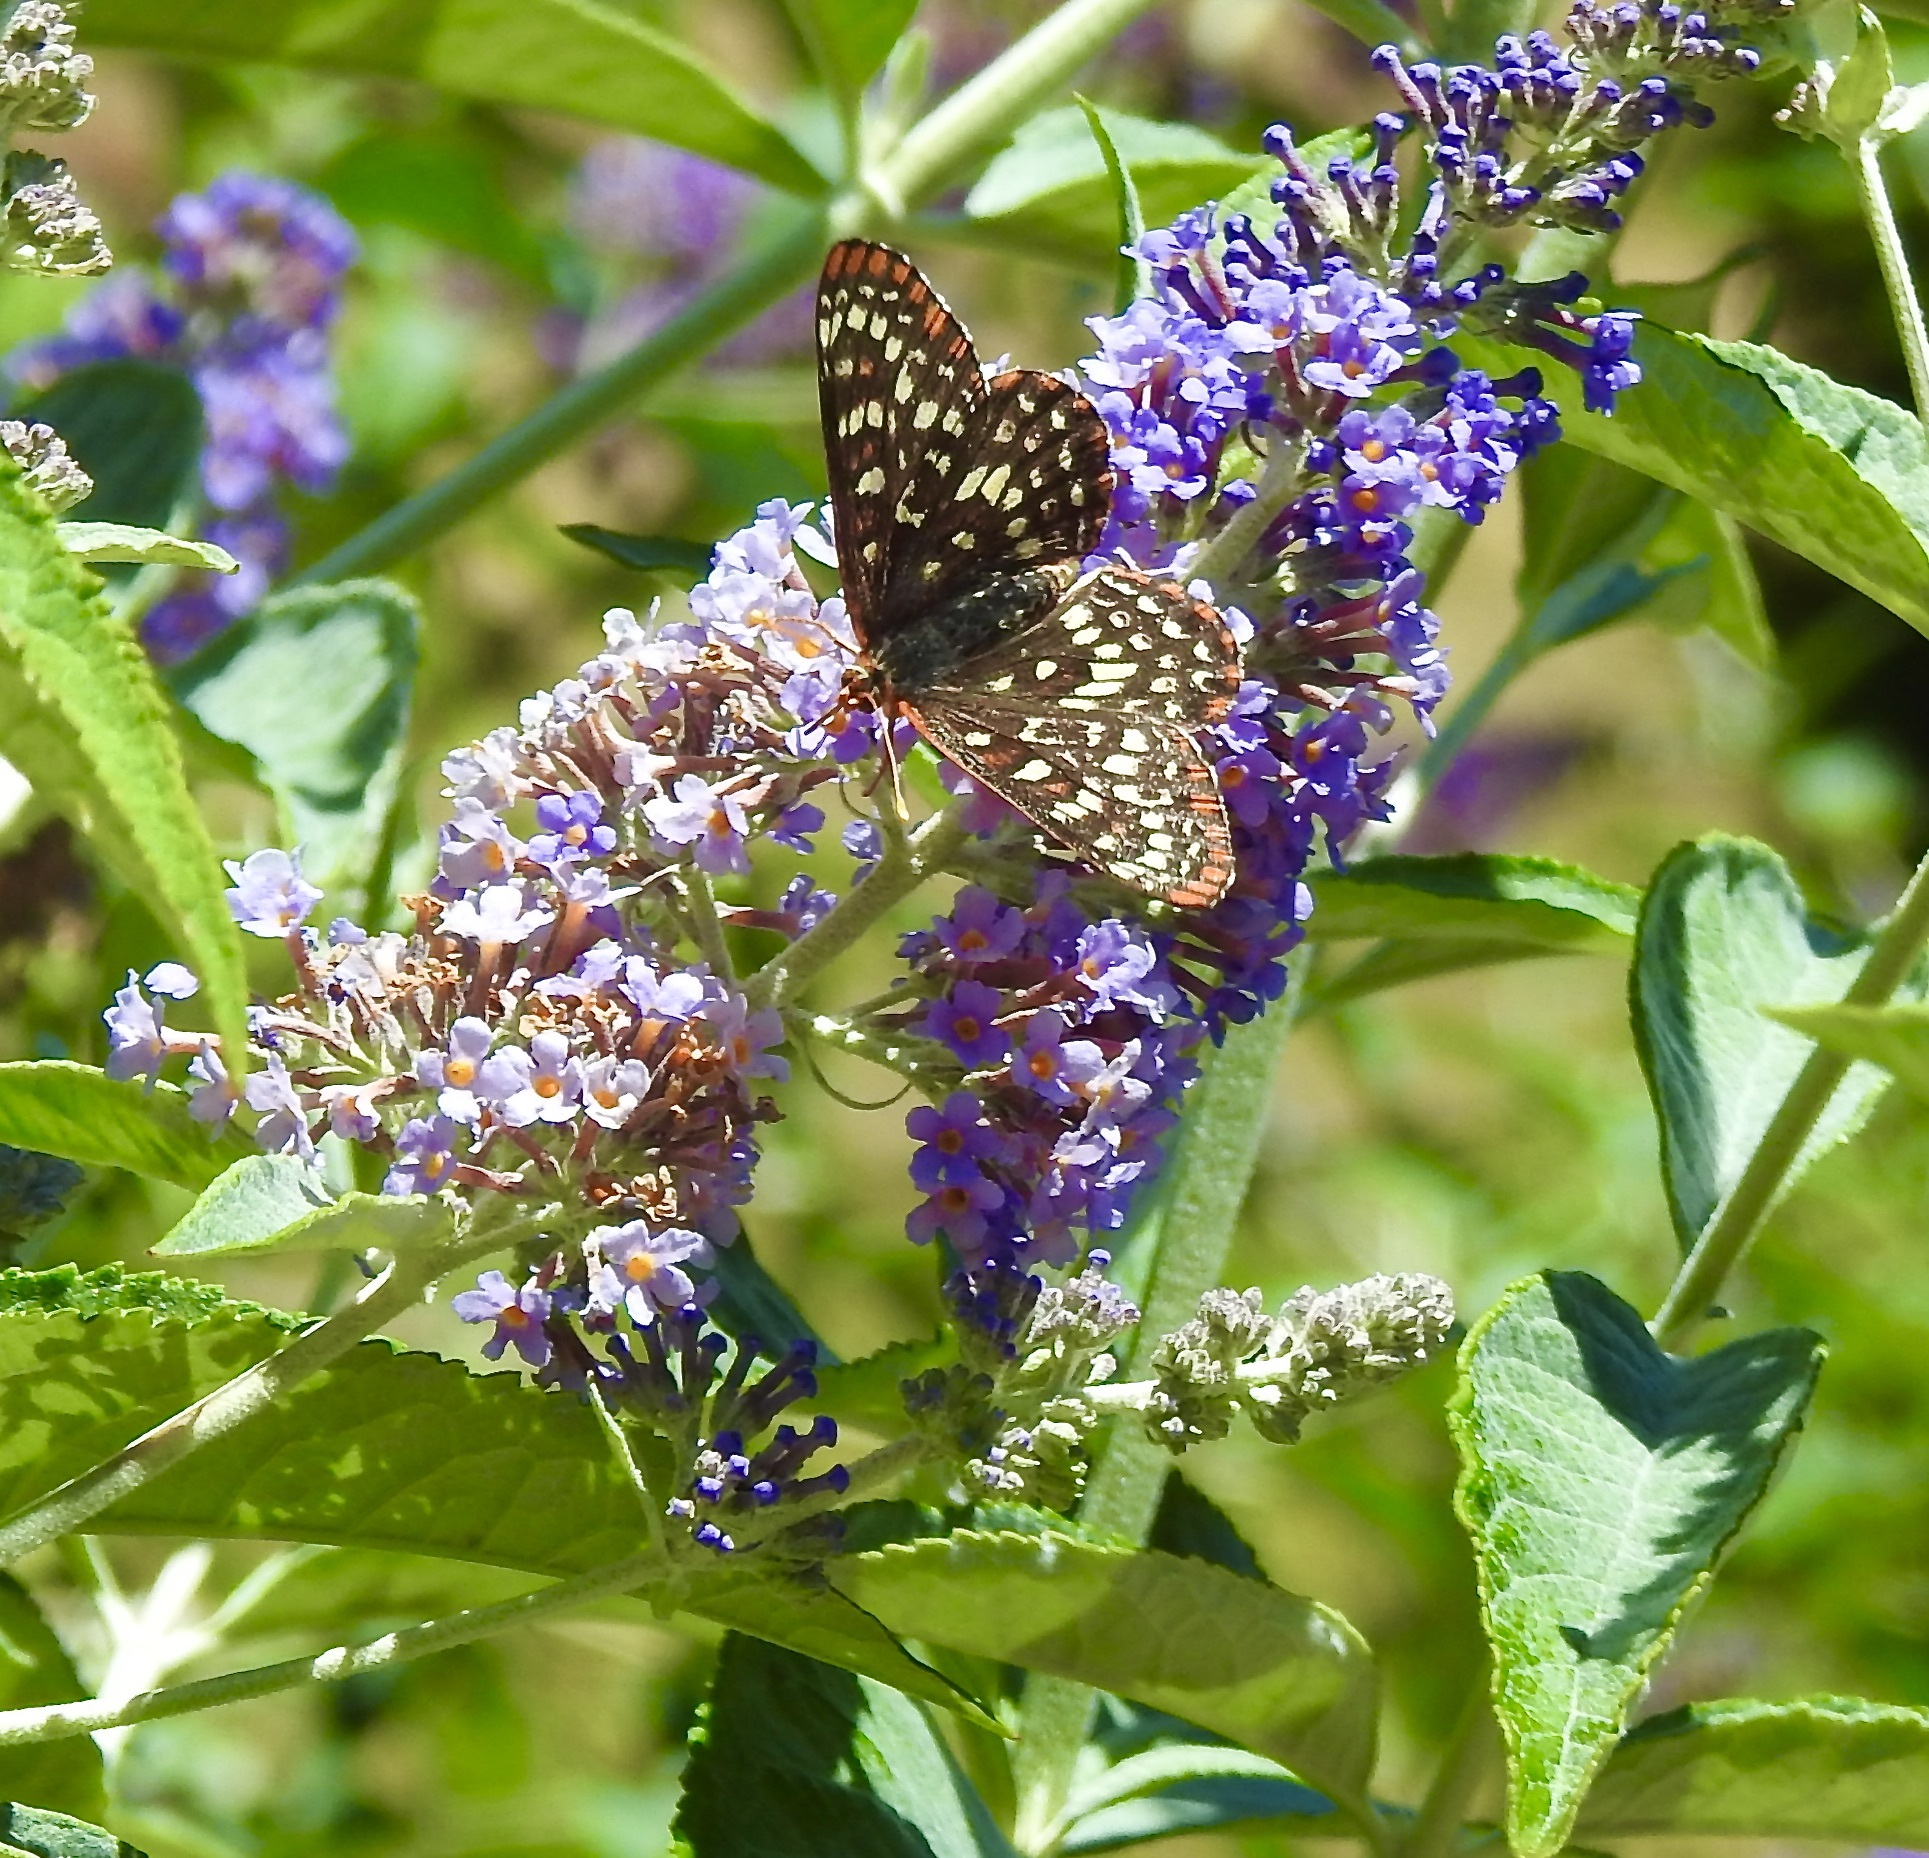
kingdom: Animalia
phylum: Arthropoda
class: Insecta
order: Lepidoptera
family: Nymphalidae
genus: Occidryas
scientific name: Occidryas chalcedona
